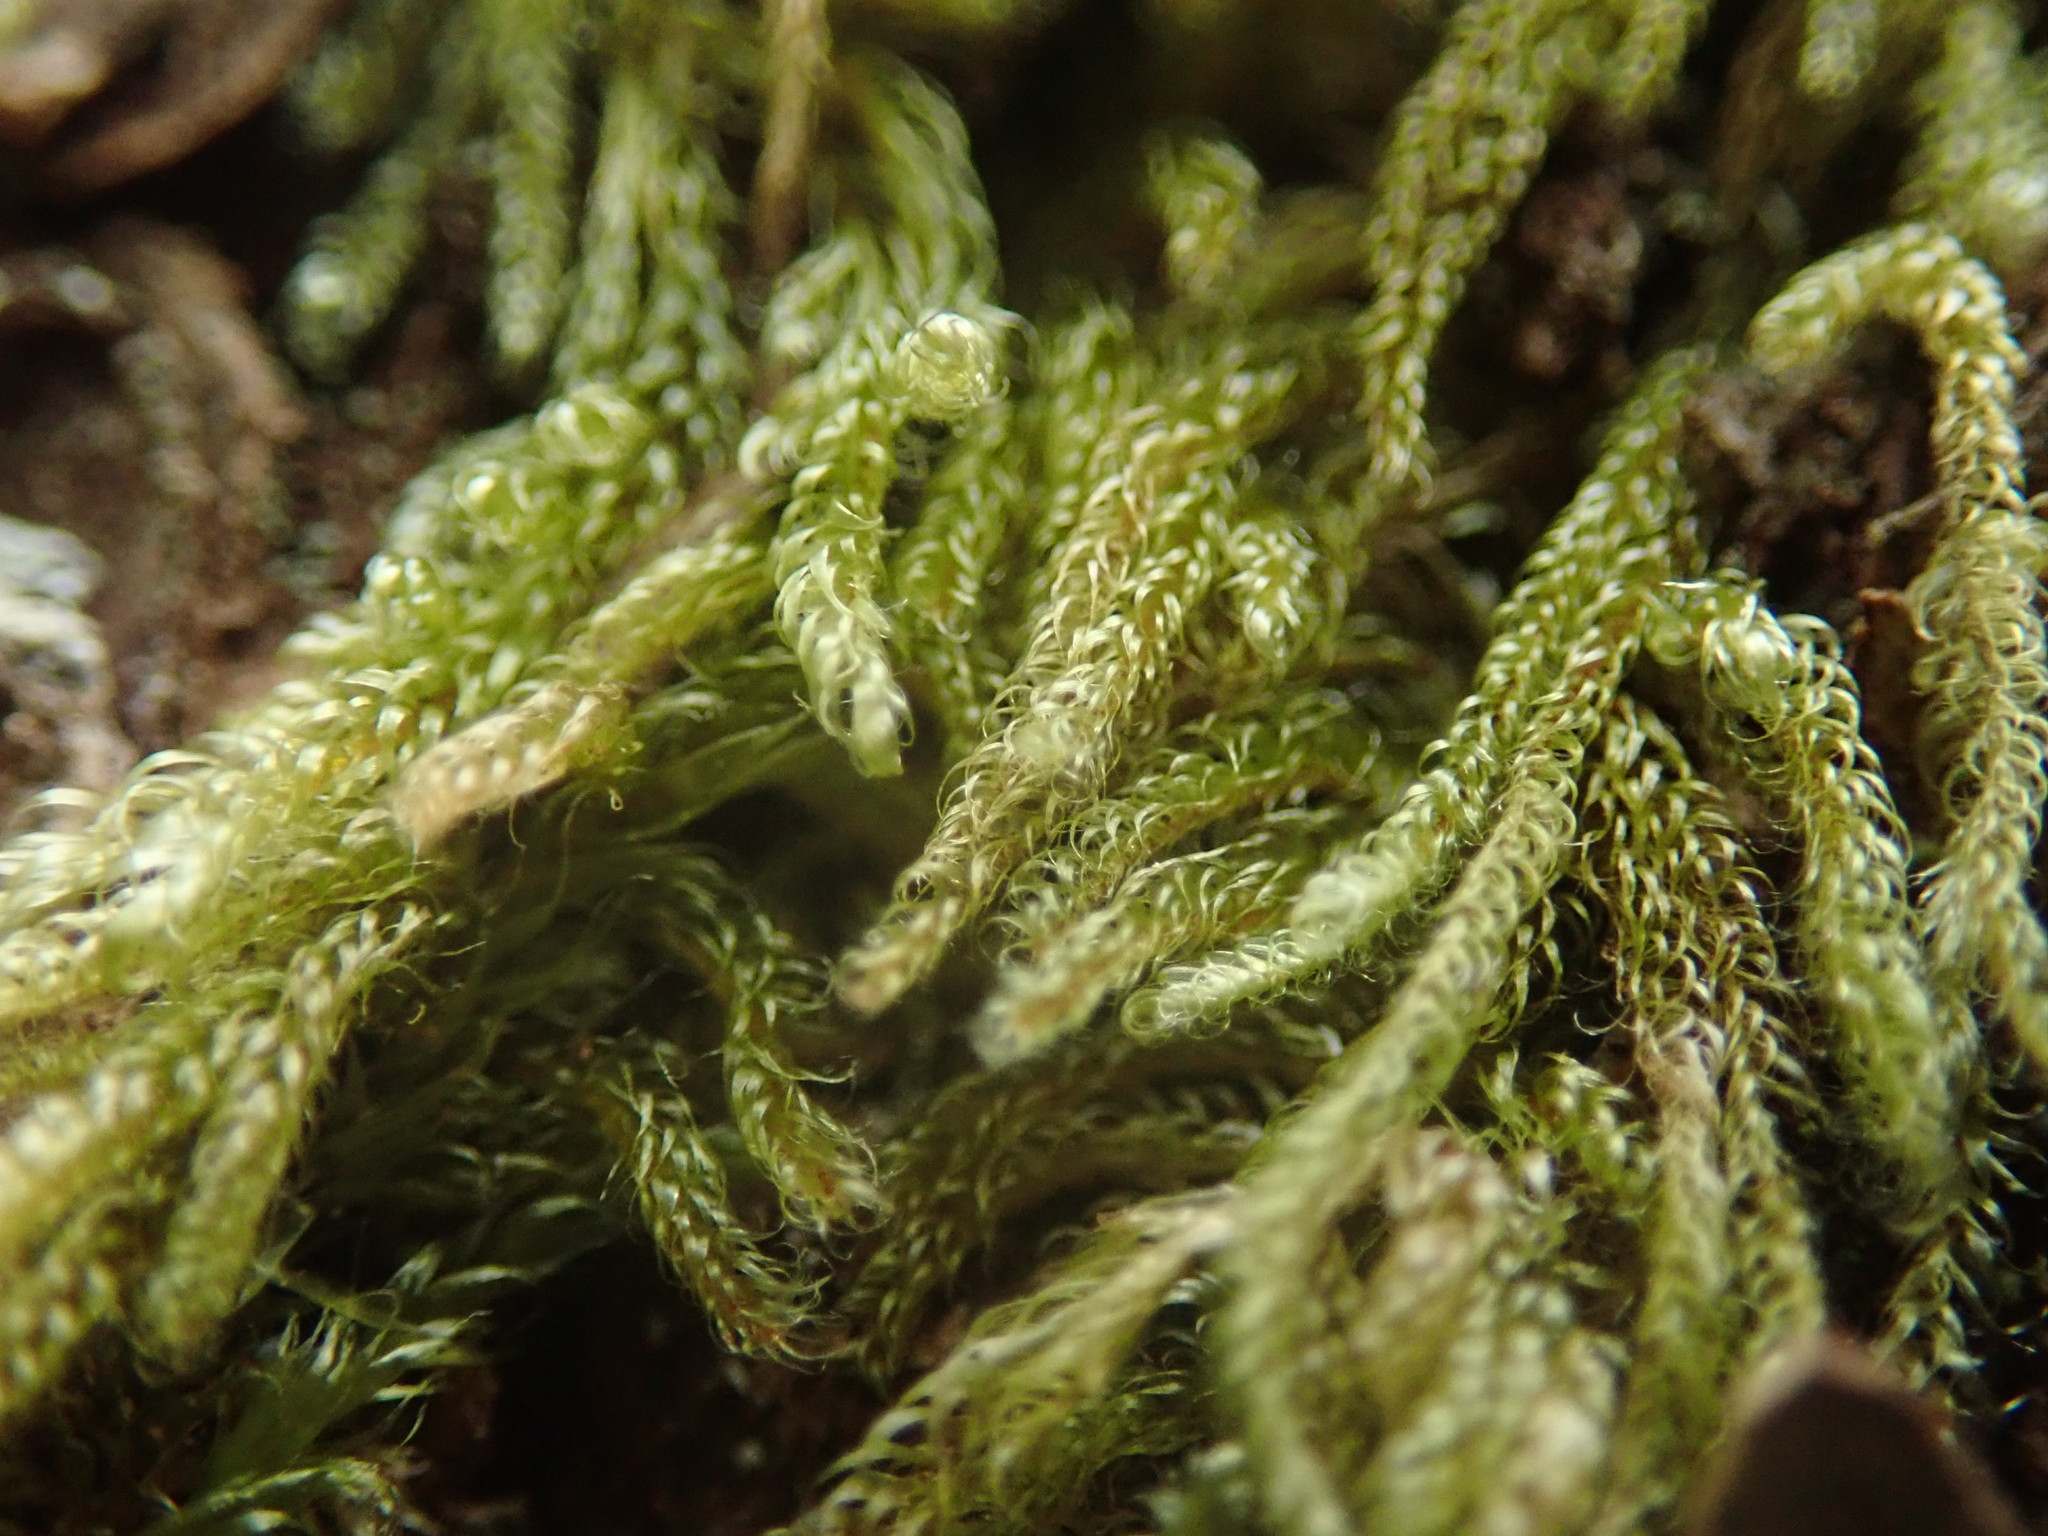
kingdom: Plantae
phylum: Bryophyta
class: Bryopsida
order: Hypnales
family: Pylaisiadelphaceae
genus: Trochophyllohypnum
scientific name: Trochophyllohypnum circinale
